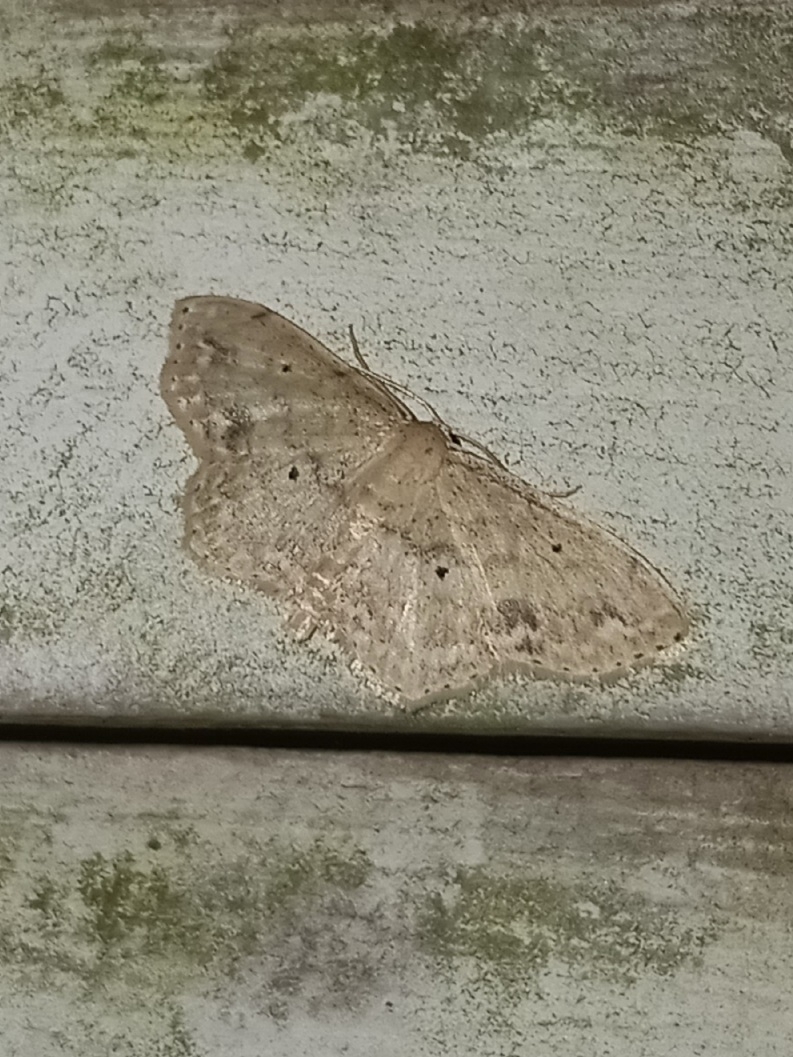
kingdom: Animalia
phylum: Arthropoda
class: Insecta
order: Lepidoptera
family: Geometridae
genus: Scopula
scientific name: Scopula compensata
